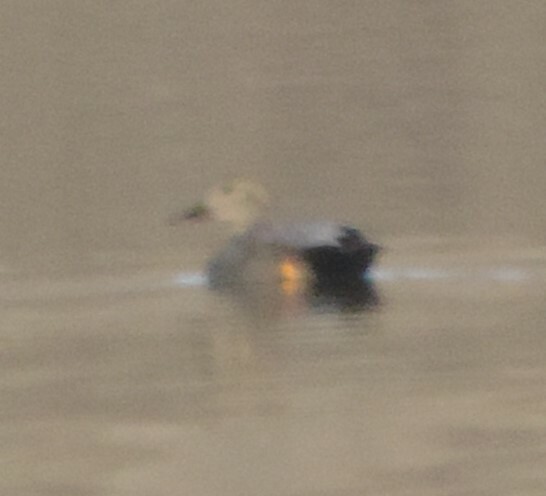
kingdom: Animalia
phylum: Chordata
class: Aves
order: Anseriformes
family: Anatidae
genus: Mareca
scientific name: Mareca strepera
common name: Gadwall
